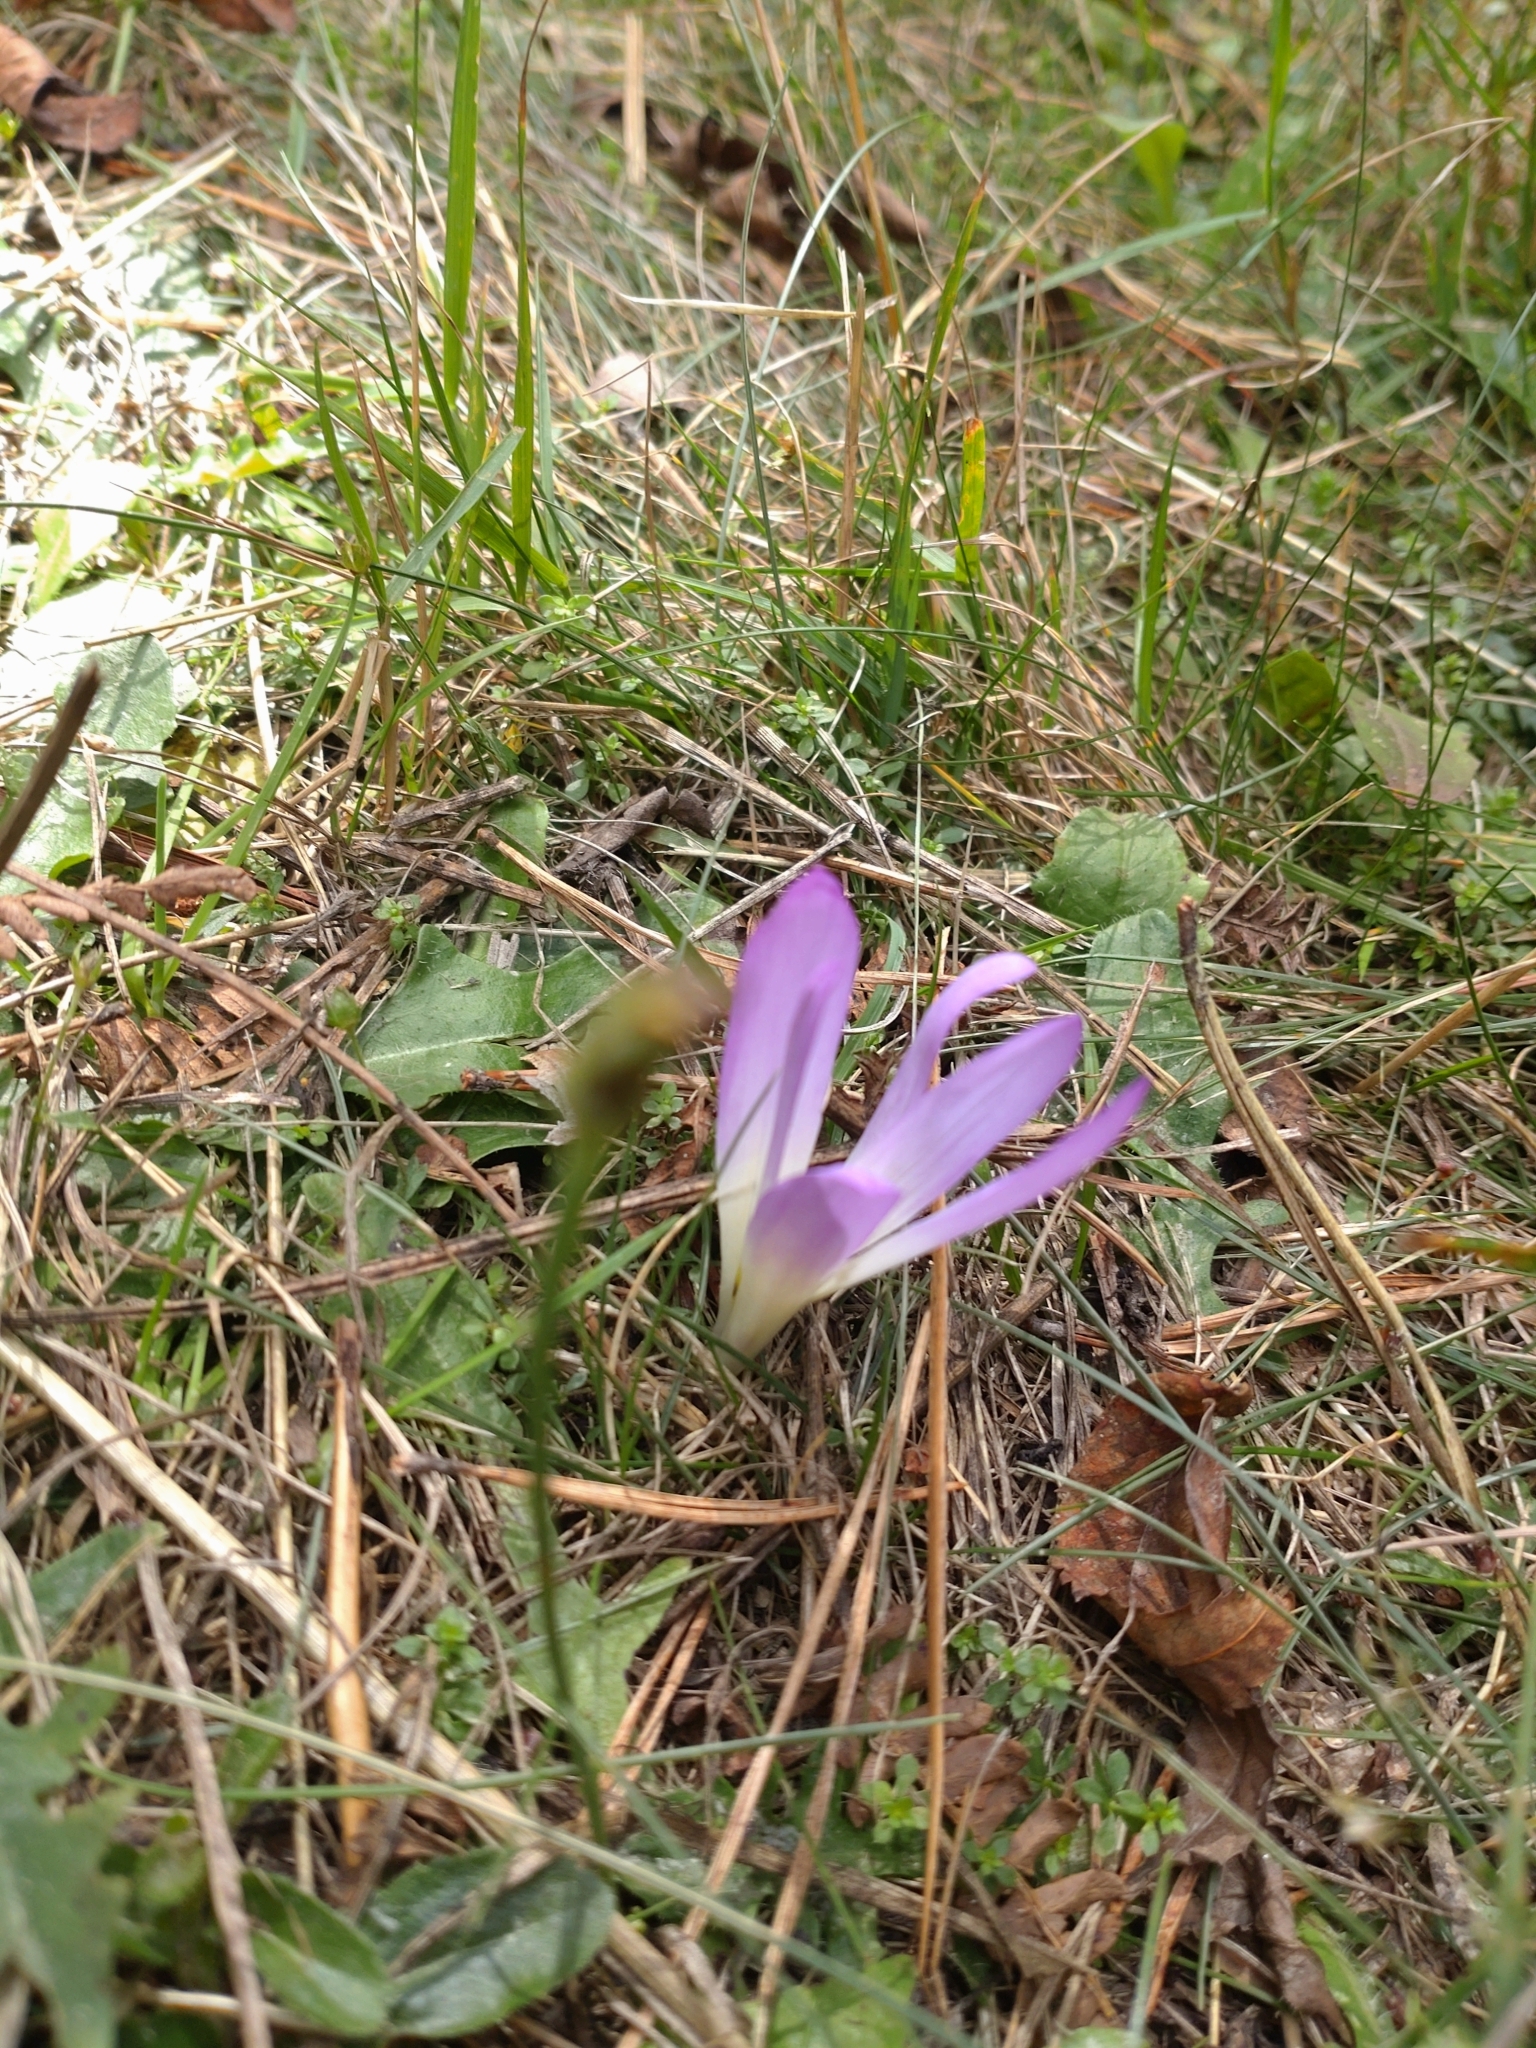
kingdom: Plantae
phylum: Tracheophyta
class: Liliopsida
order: Liliales
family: Colchicaceae
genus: Colchicum
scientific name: Colchicum montanum
